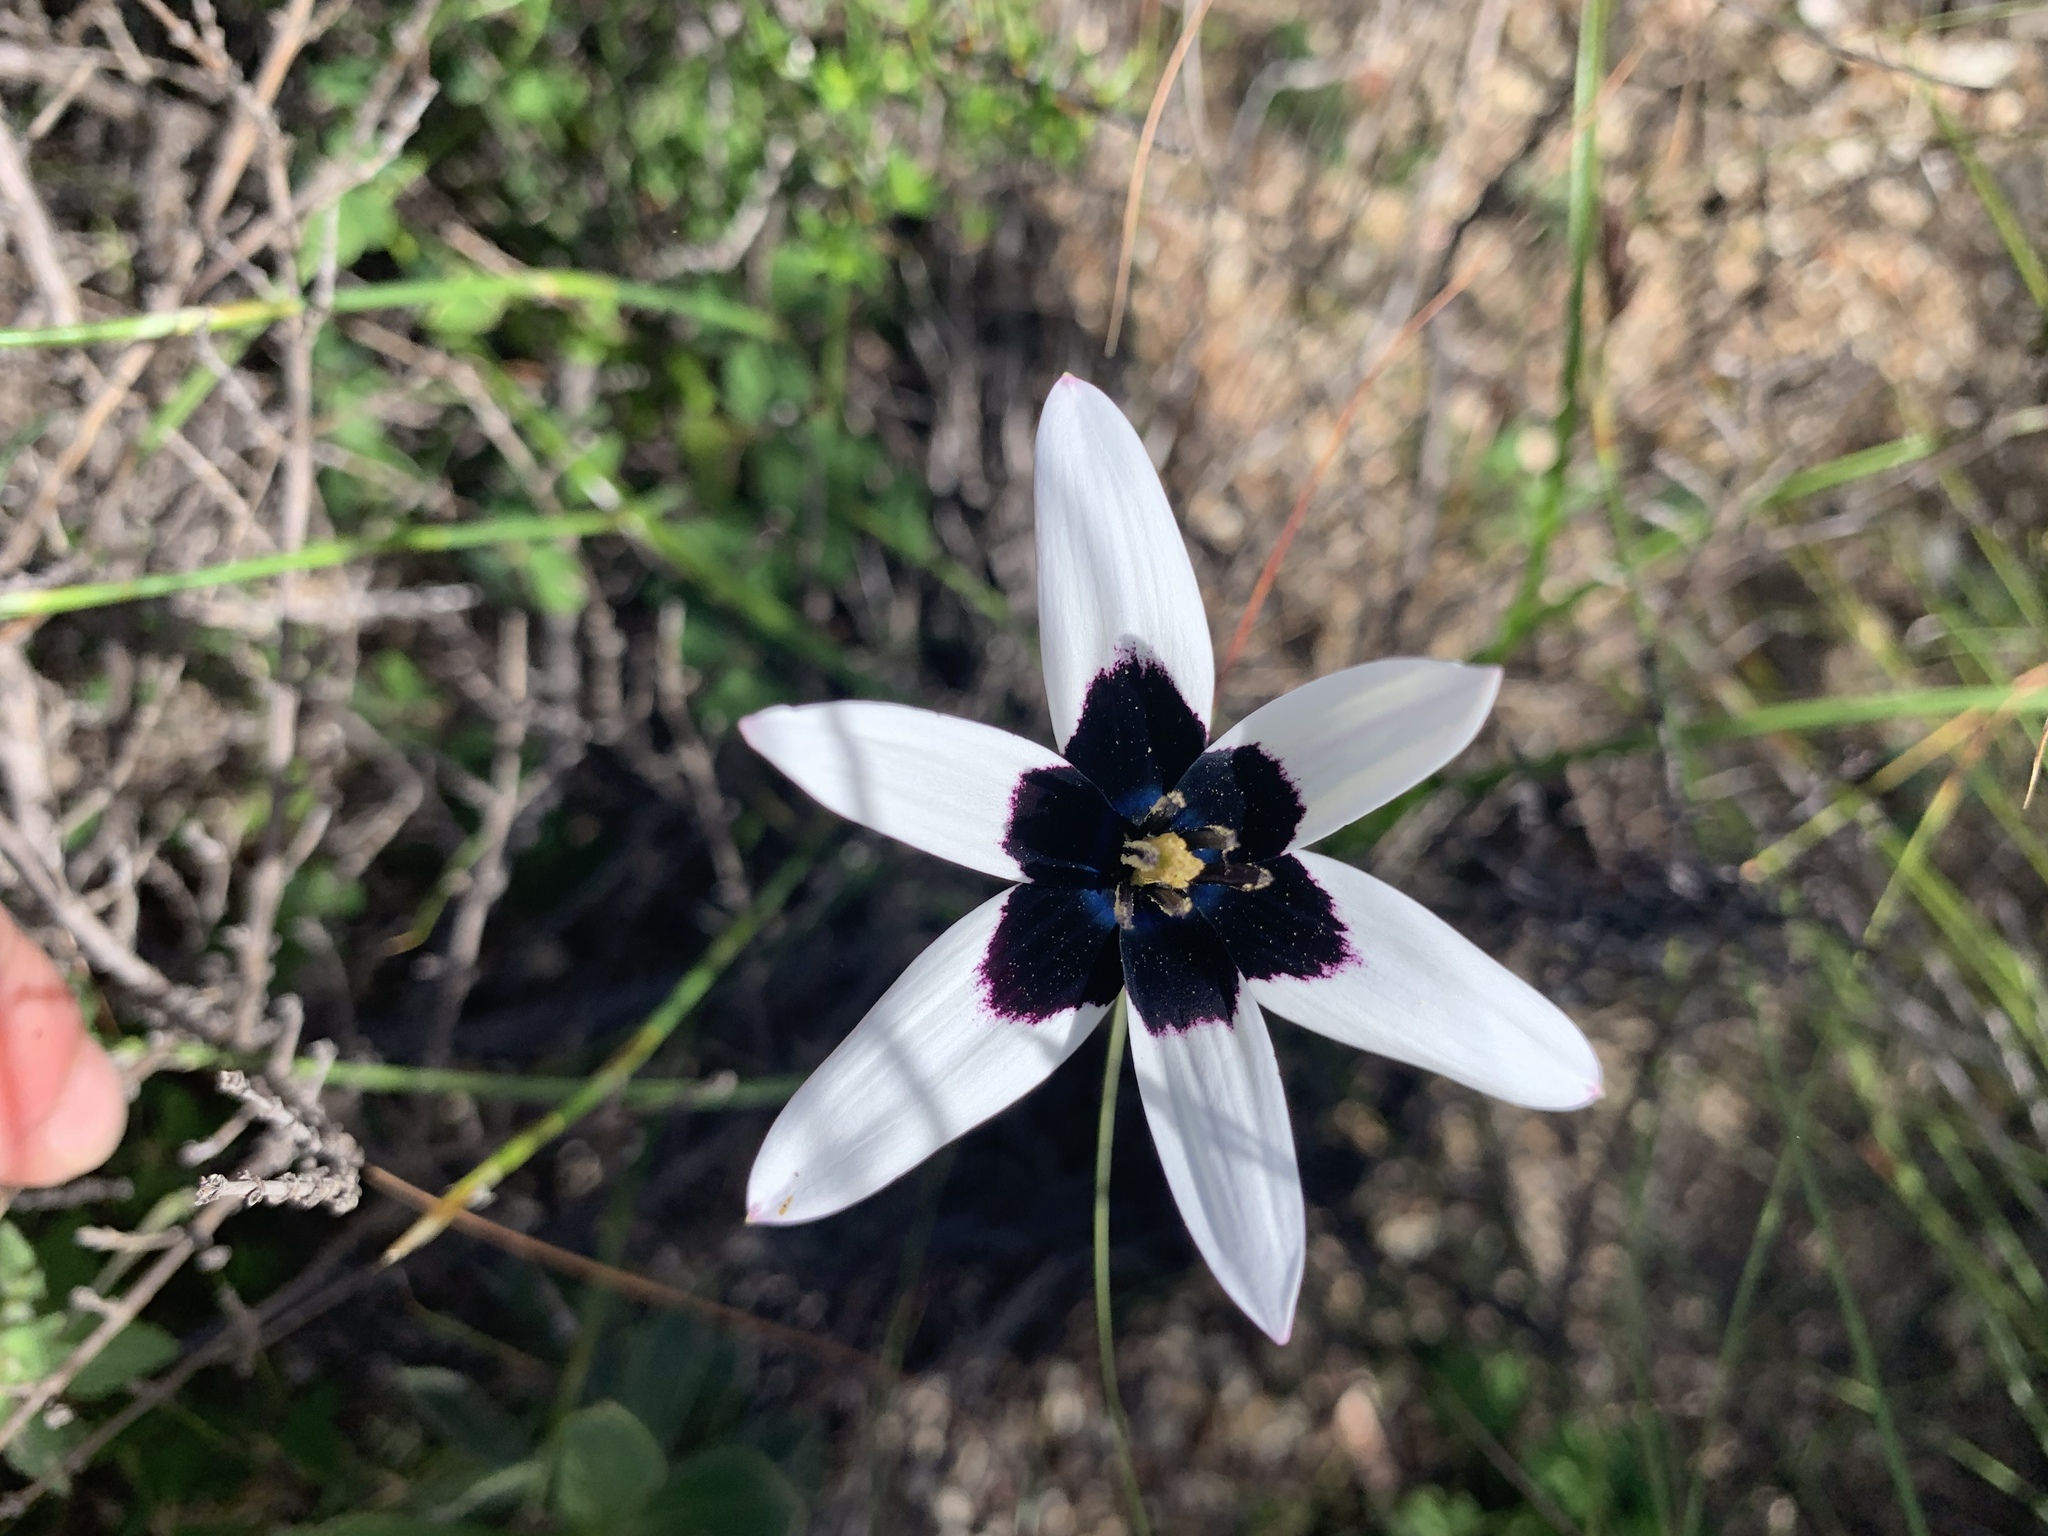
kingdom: Plantae
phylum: Tracheophyta
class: Liliopsida
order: Asparagales
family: Hypoxidaceae
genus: Pauridia
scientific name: Pauridia capensis
